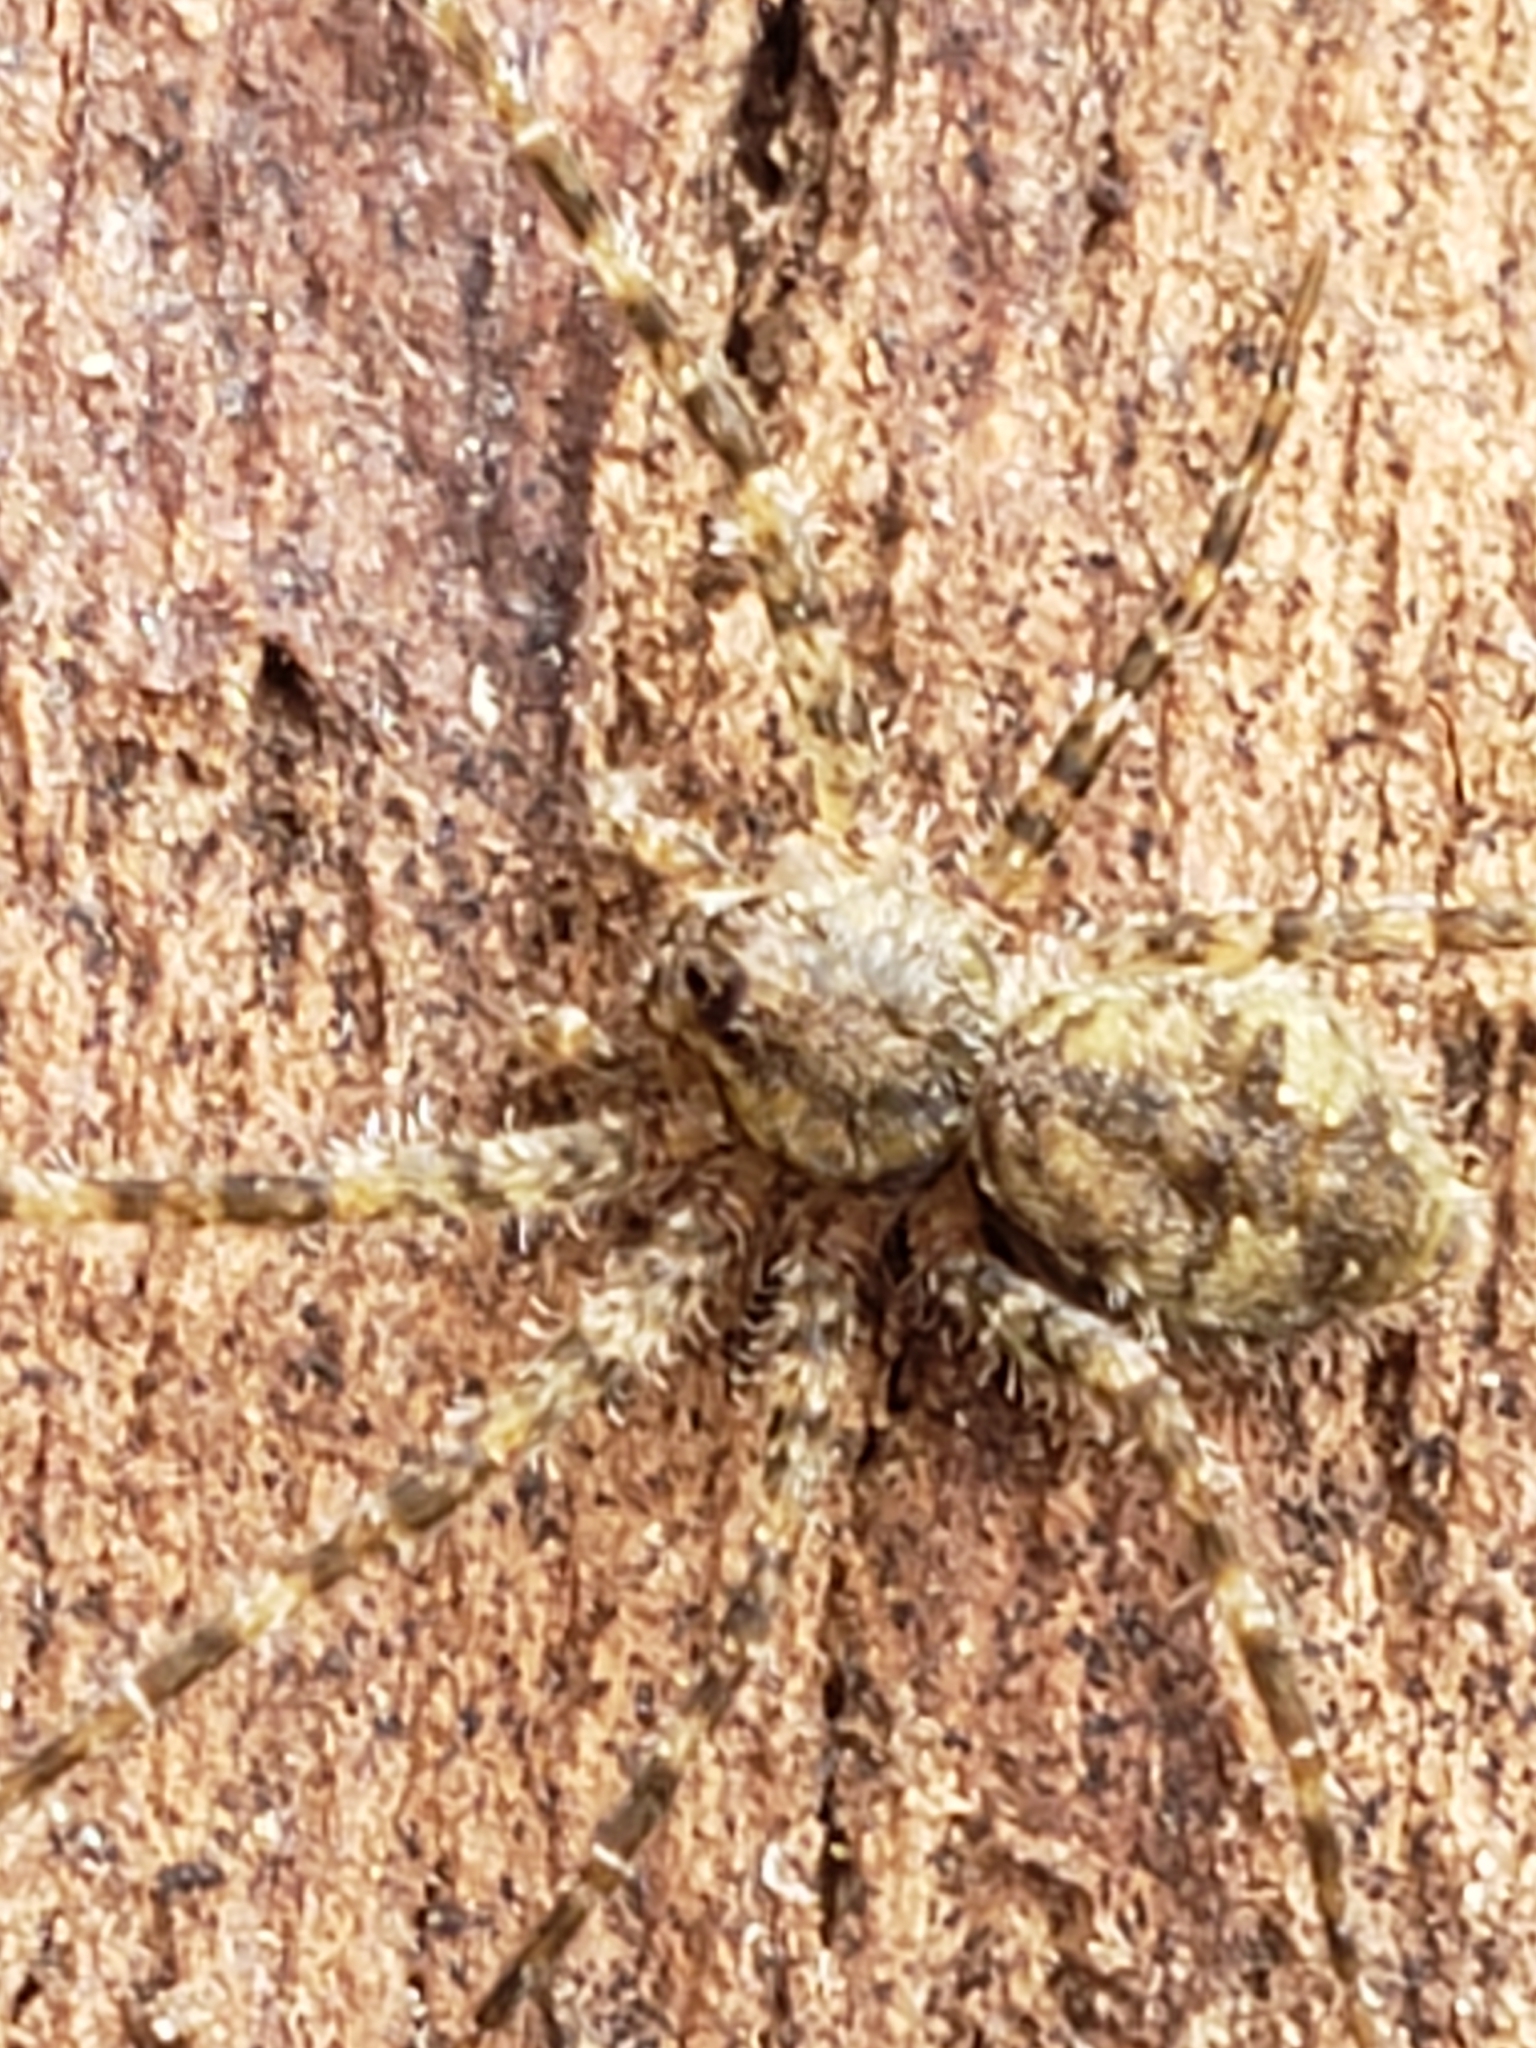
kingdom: Animalia
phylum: Arthropoda
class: Arachnida
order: Araneae
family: Pisauridae
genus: Dolomedes
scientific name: Dolomedes albineus
